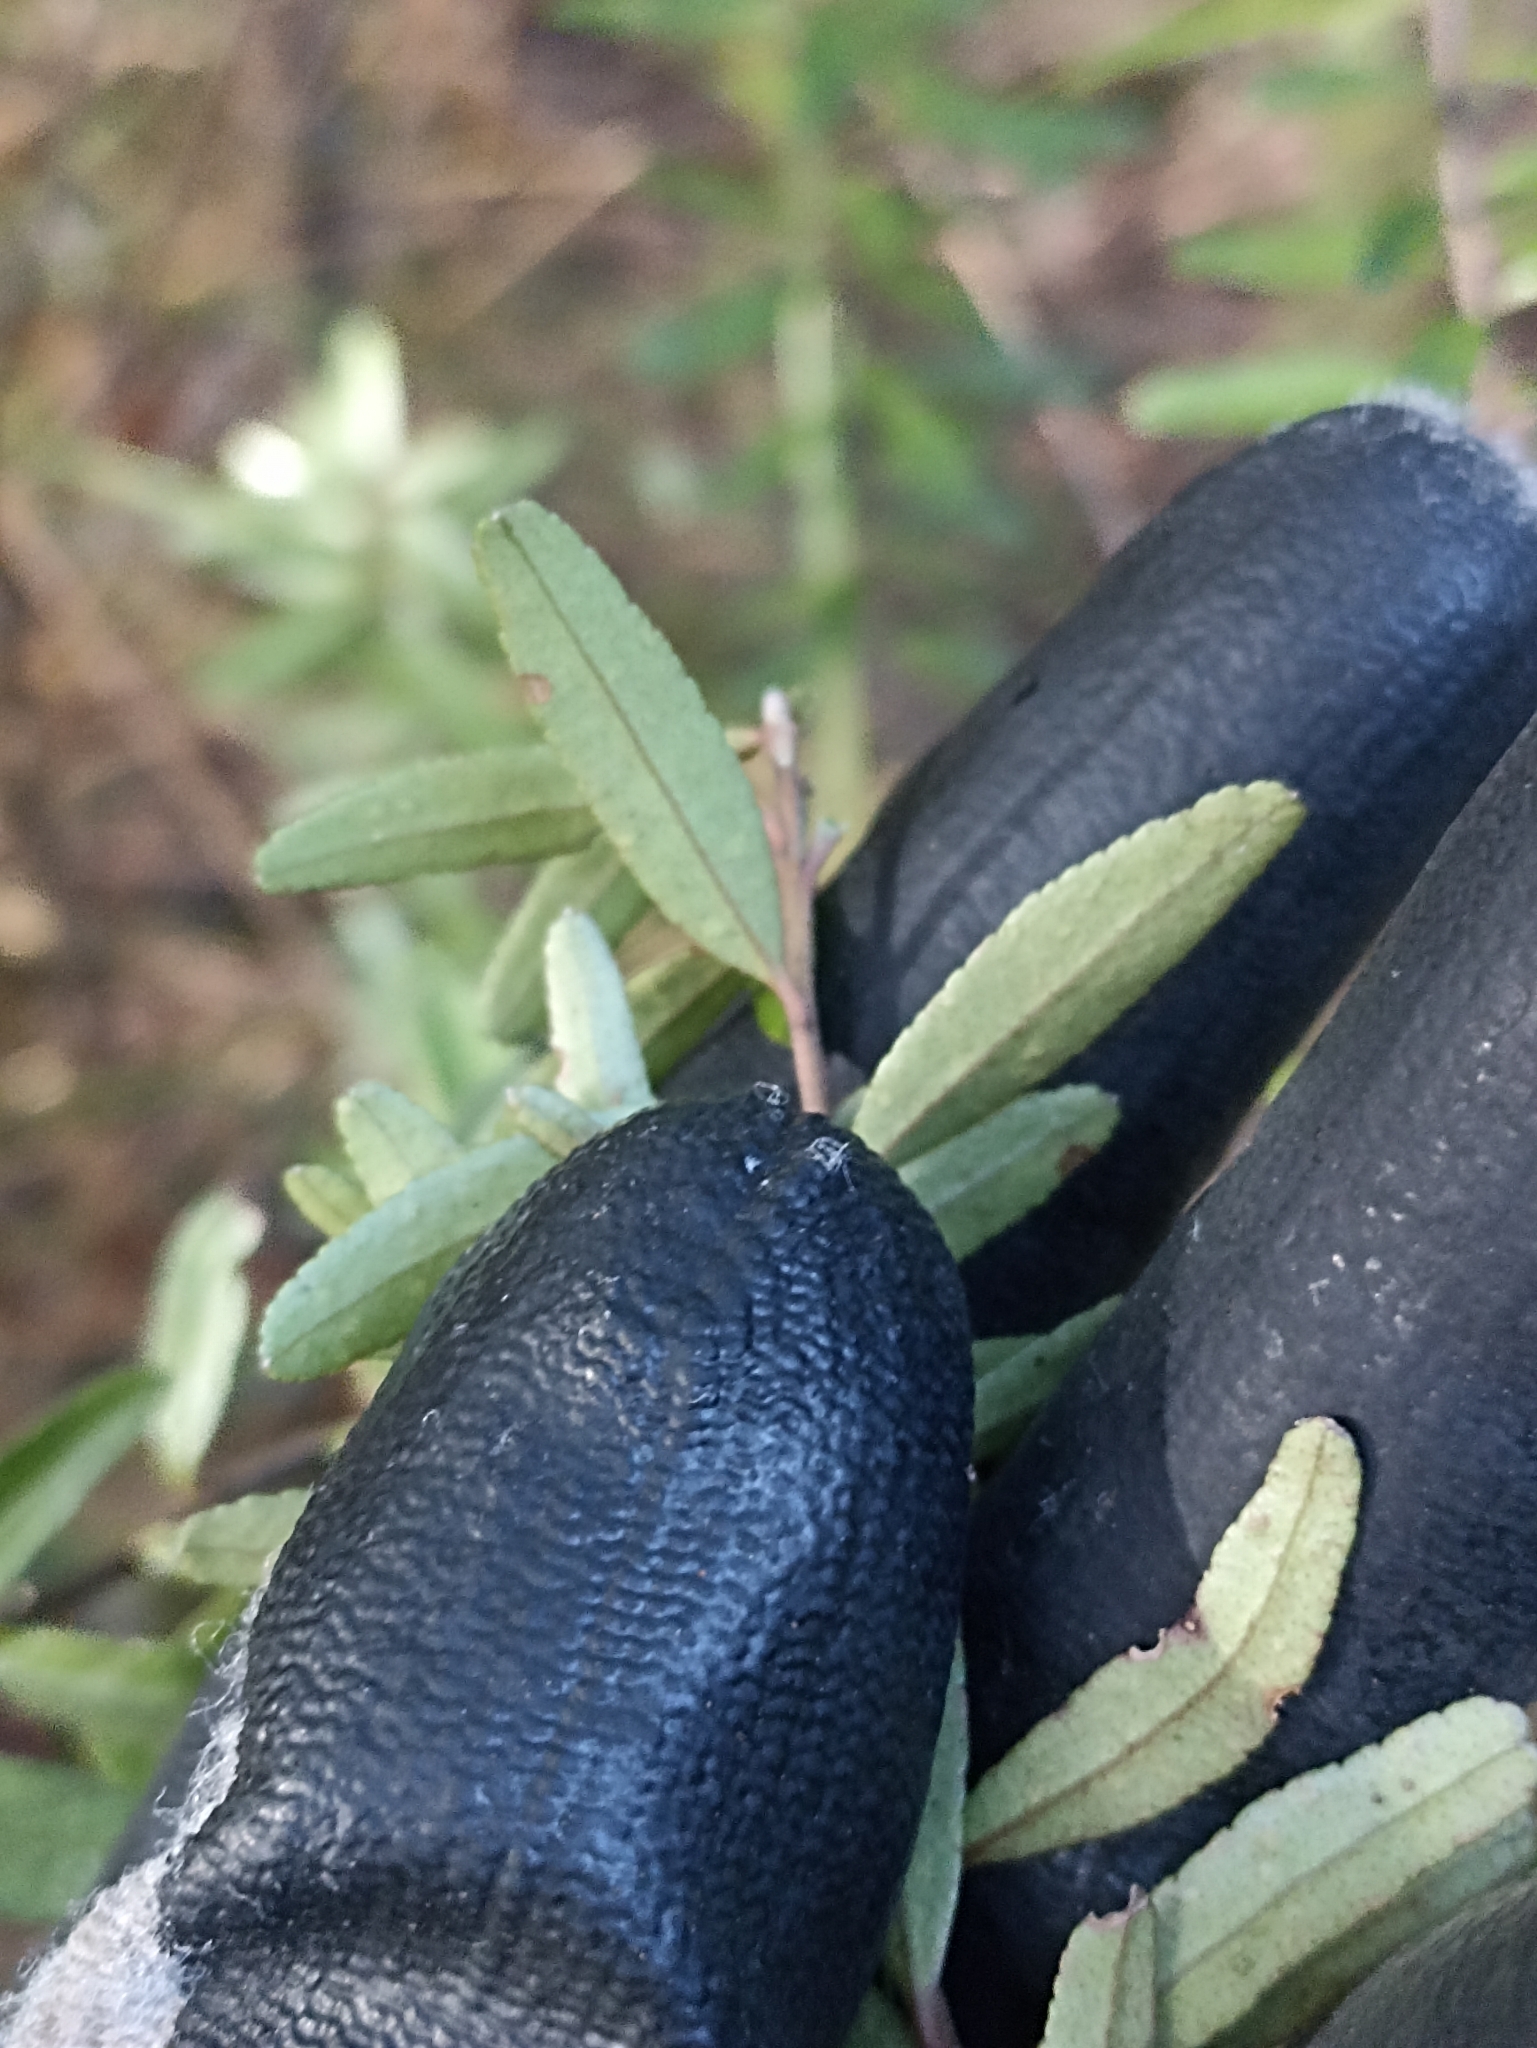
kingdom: Plantae
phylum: Tracheophyta
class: Magnoliopsida
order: Sapindales
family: Rutaceae
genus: Leionema
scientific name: Leionema nudum
